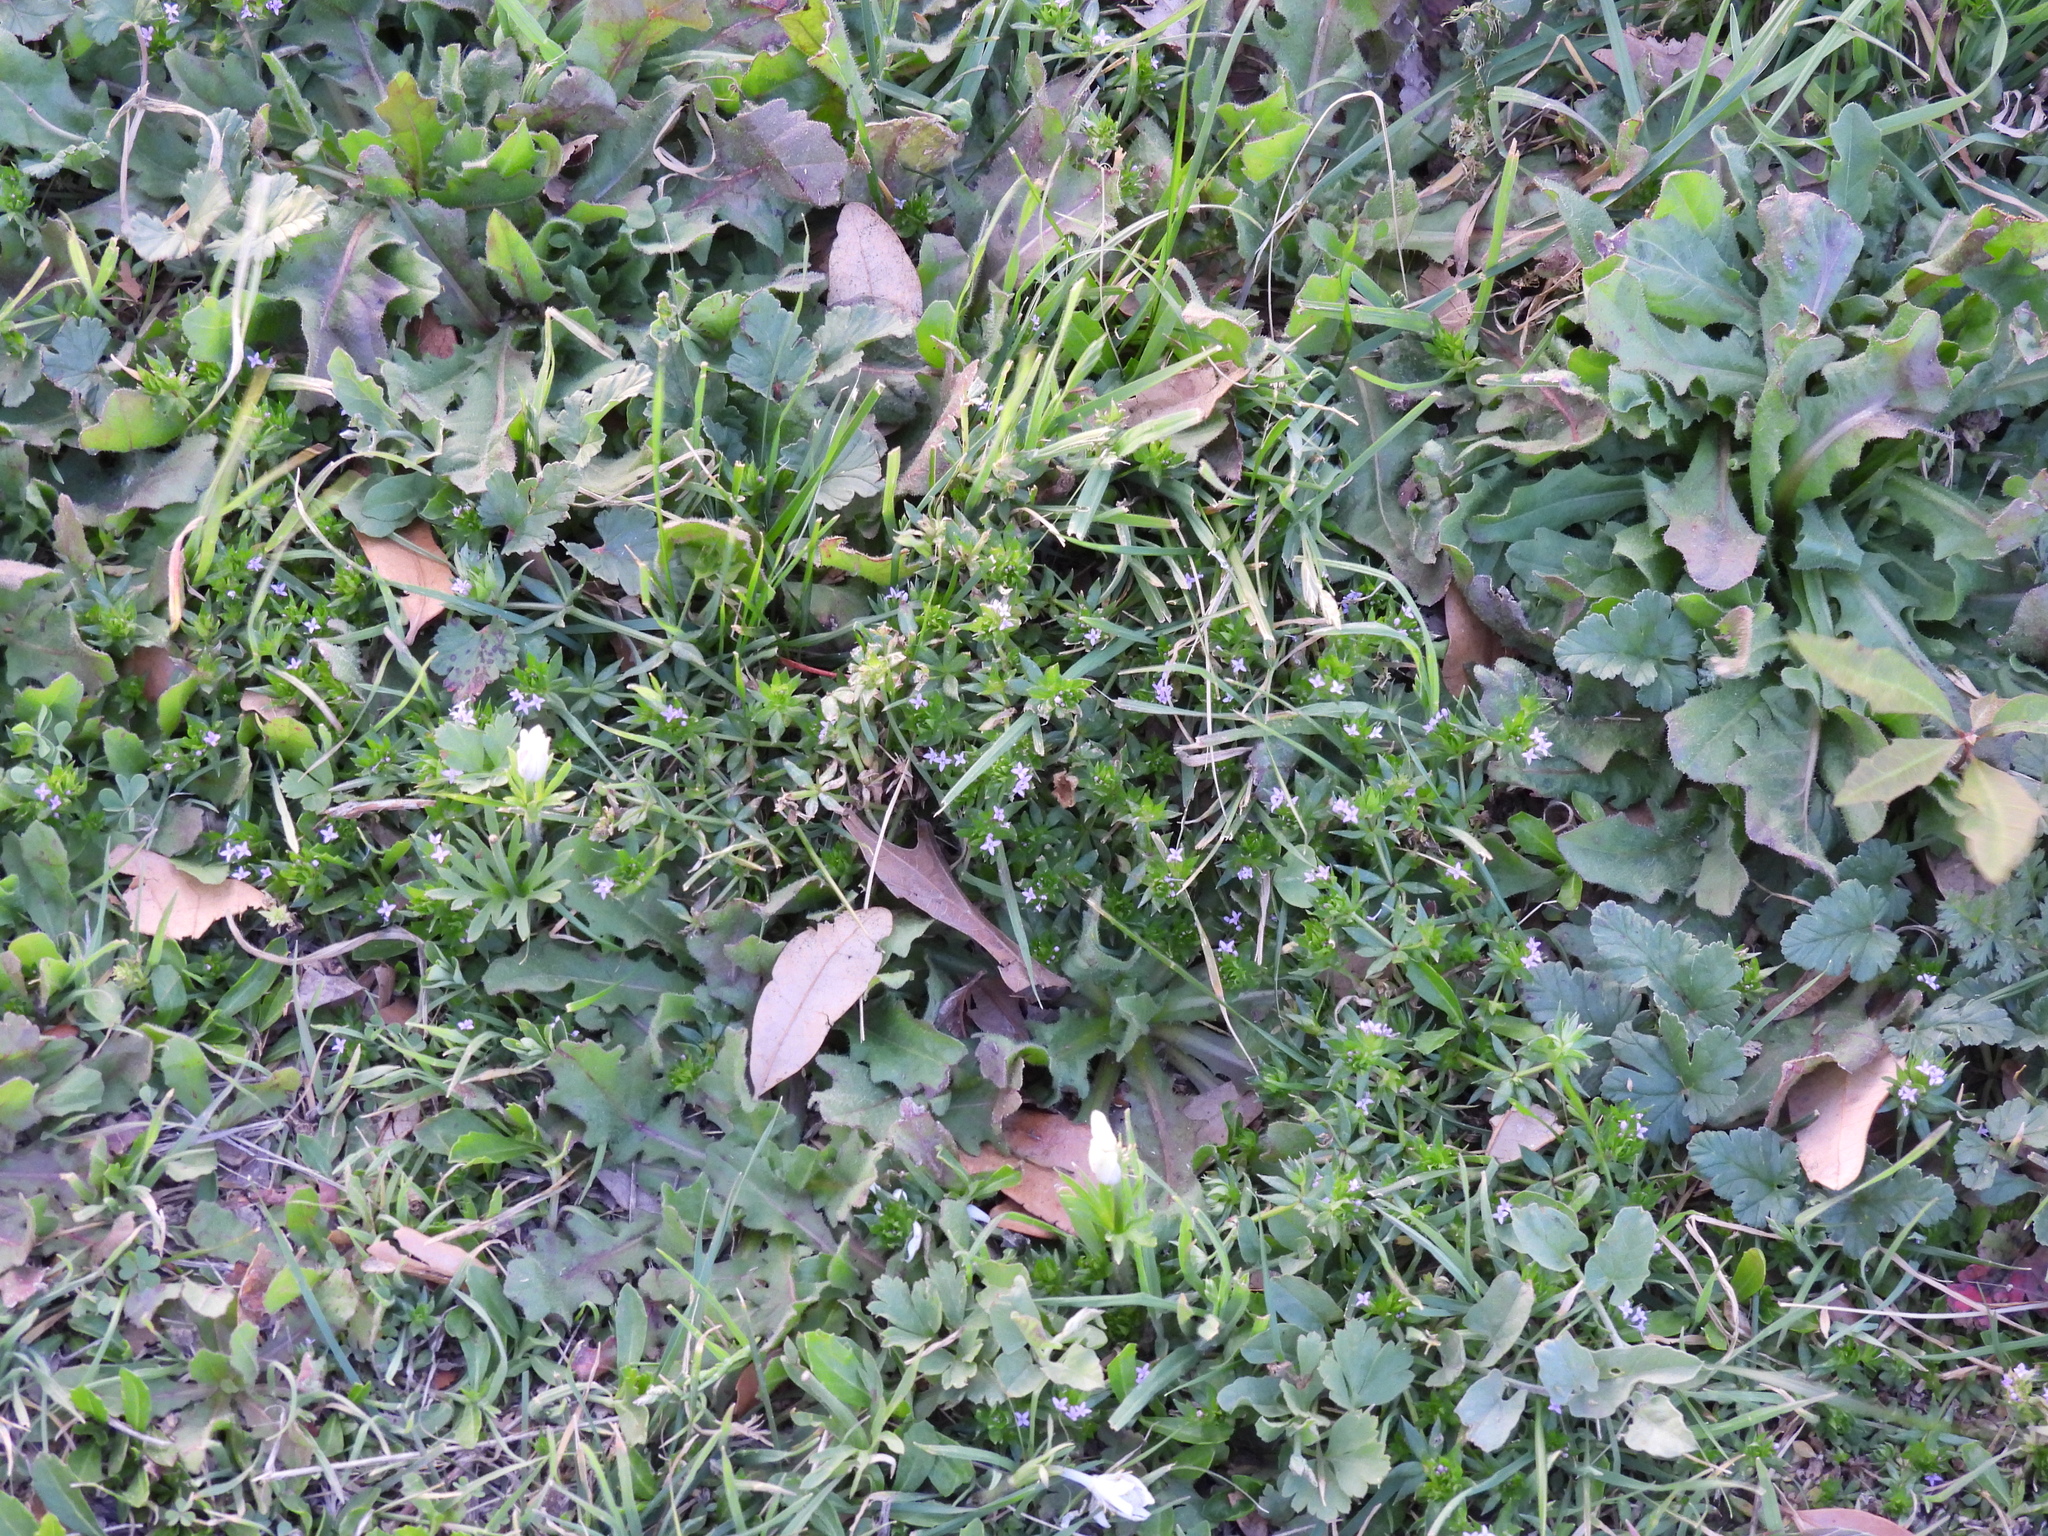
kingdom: Plantae
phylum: Tracheophyta
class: Magnoliopsida
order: Gentianales
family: Rubiaceae
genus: Sherardia
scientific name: Sherardia arvensis
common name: Field madder
